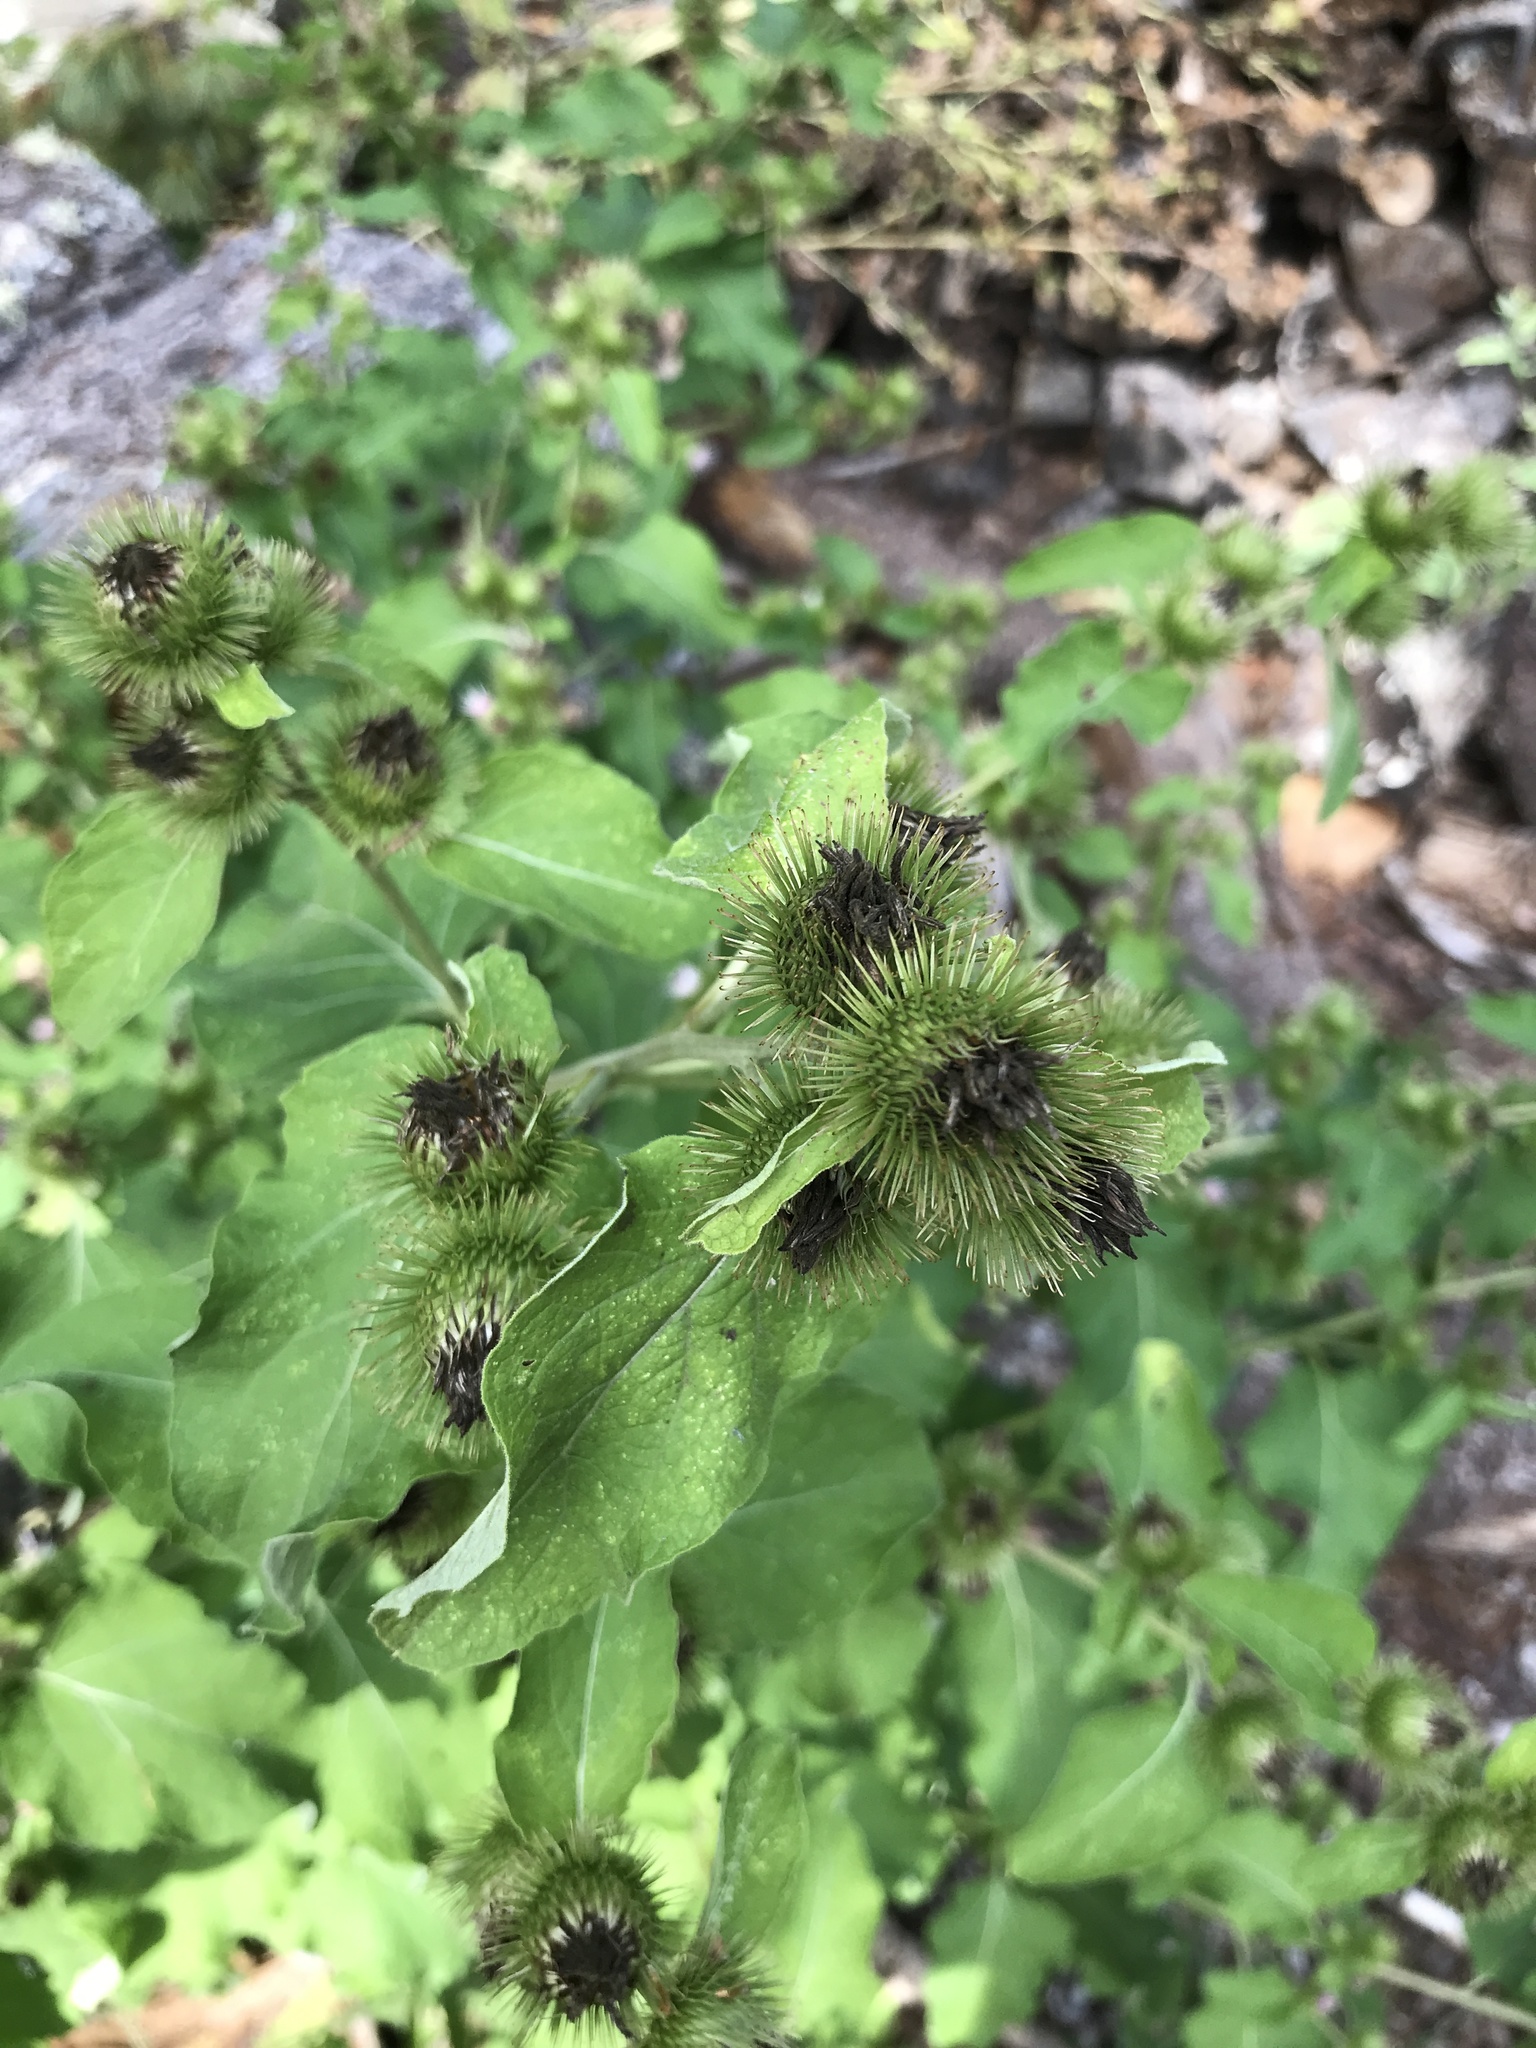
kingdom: Plantae
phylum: Tracheophyta
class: Magnoliopsida
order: Asterales
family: Asteraceae
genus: Arctium
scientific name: Arctium minus
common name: Lesser burdock
